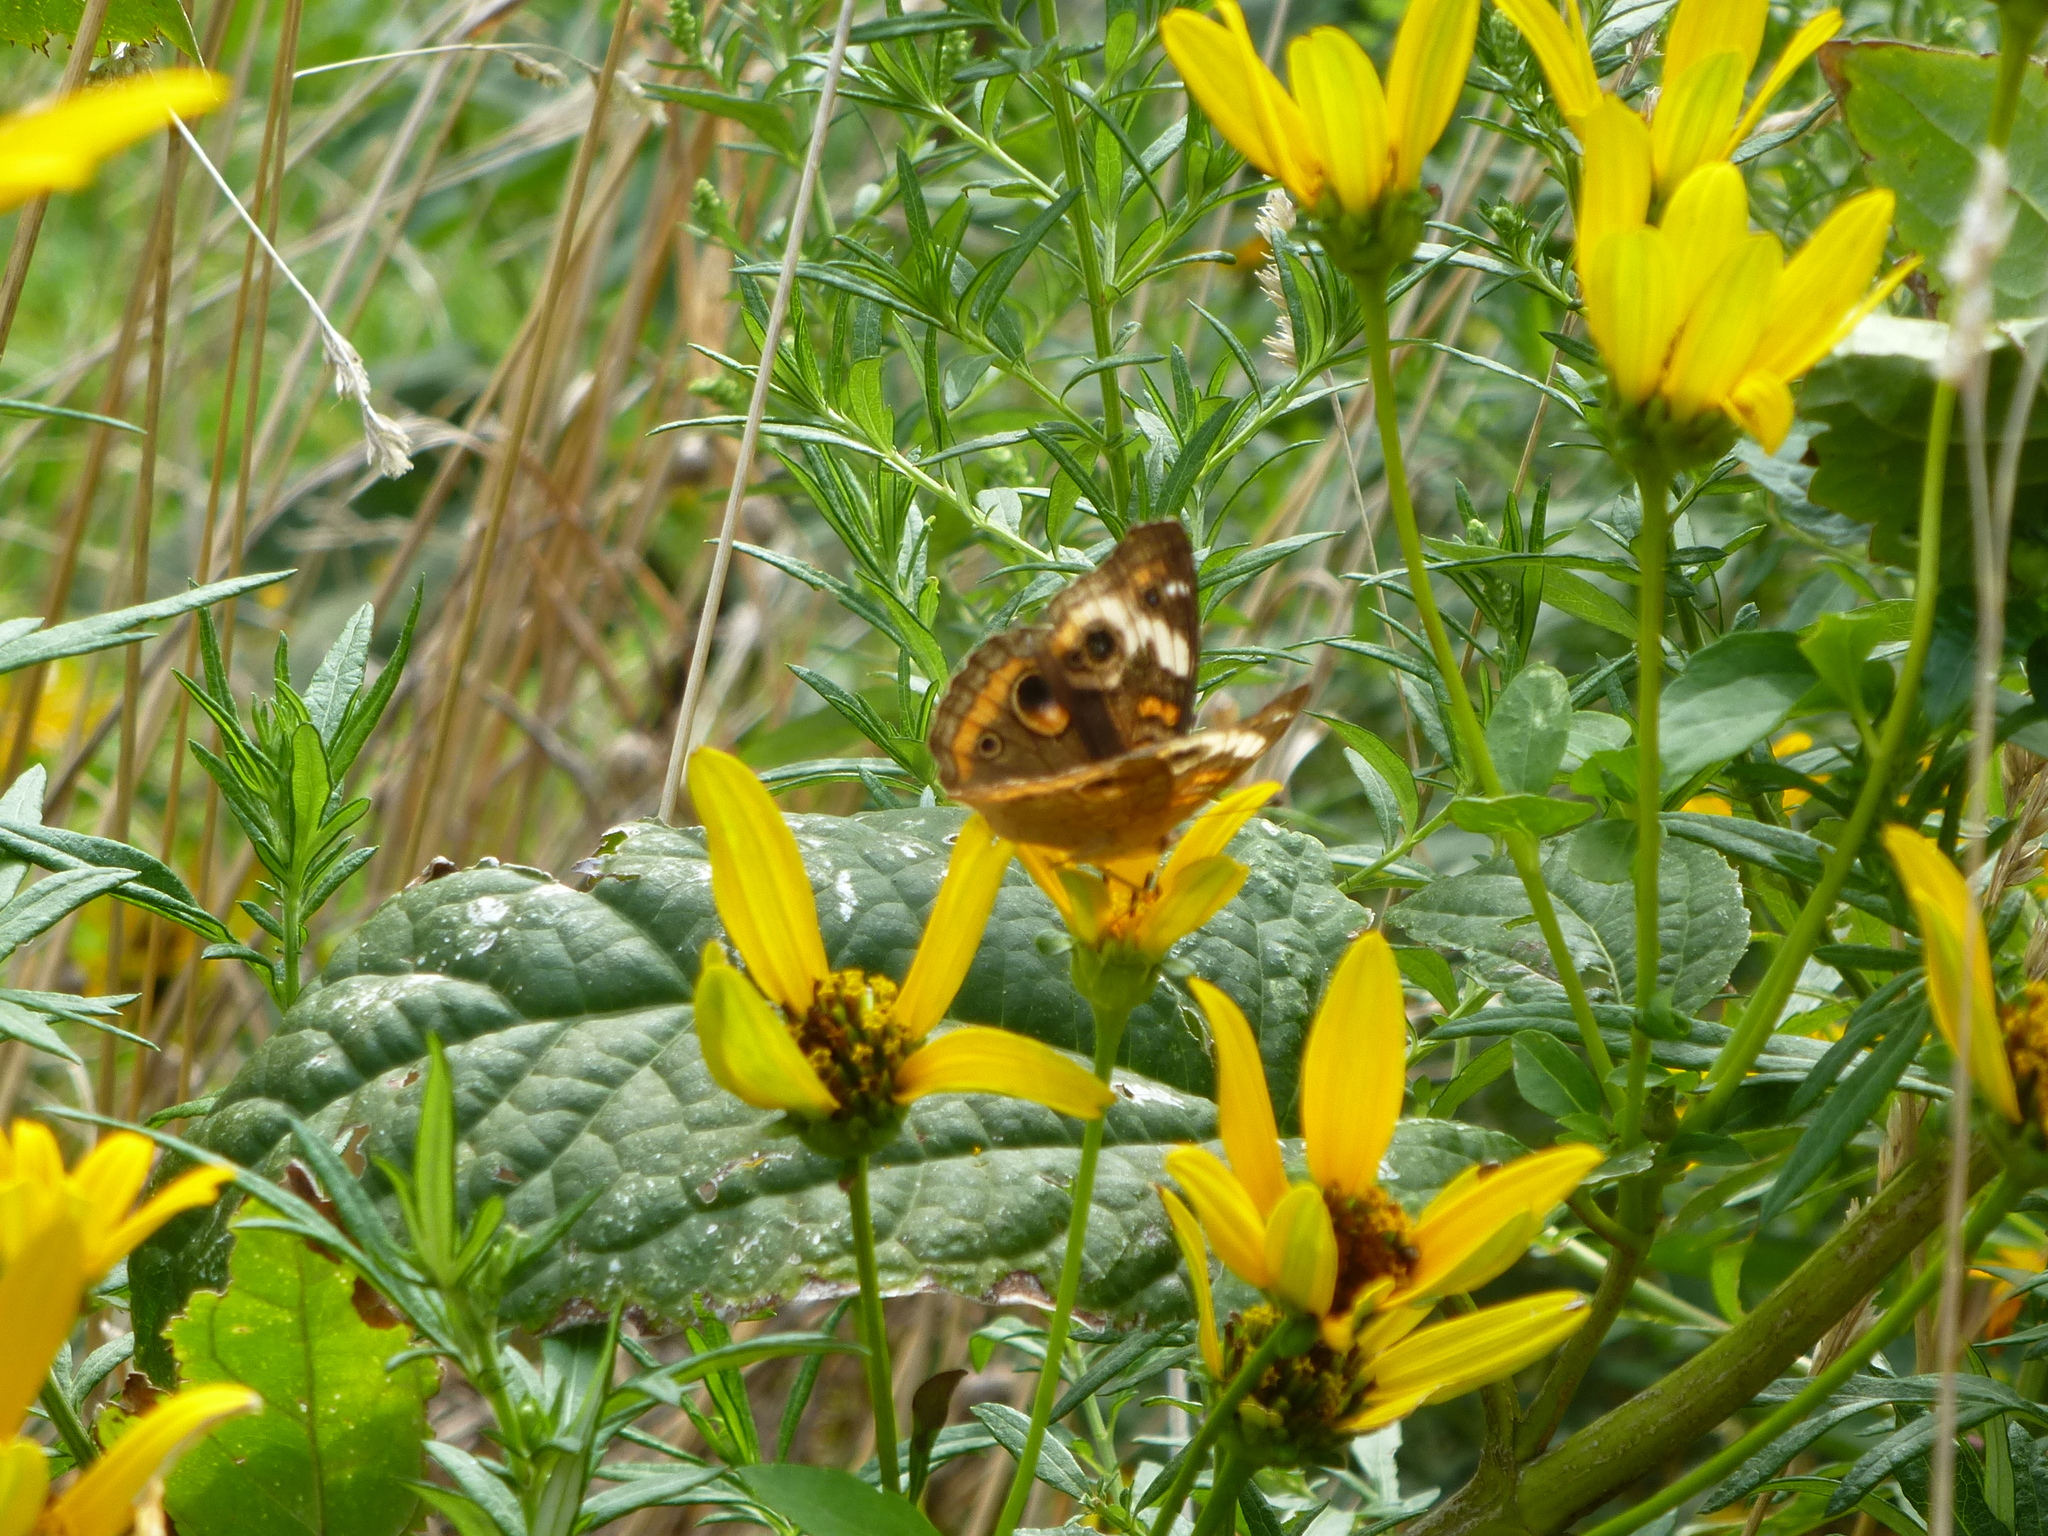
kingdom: Animalia
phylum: Arthropoda
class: Insecta
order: Lepidoptera
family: Nymphalidae
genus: Junonia
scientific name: Junonia coenia
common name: Common buckeye
